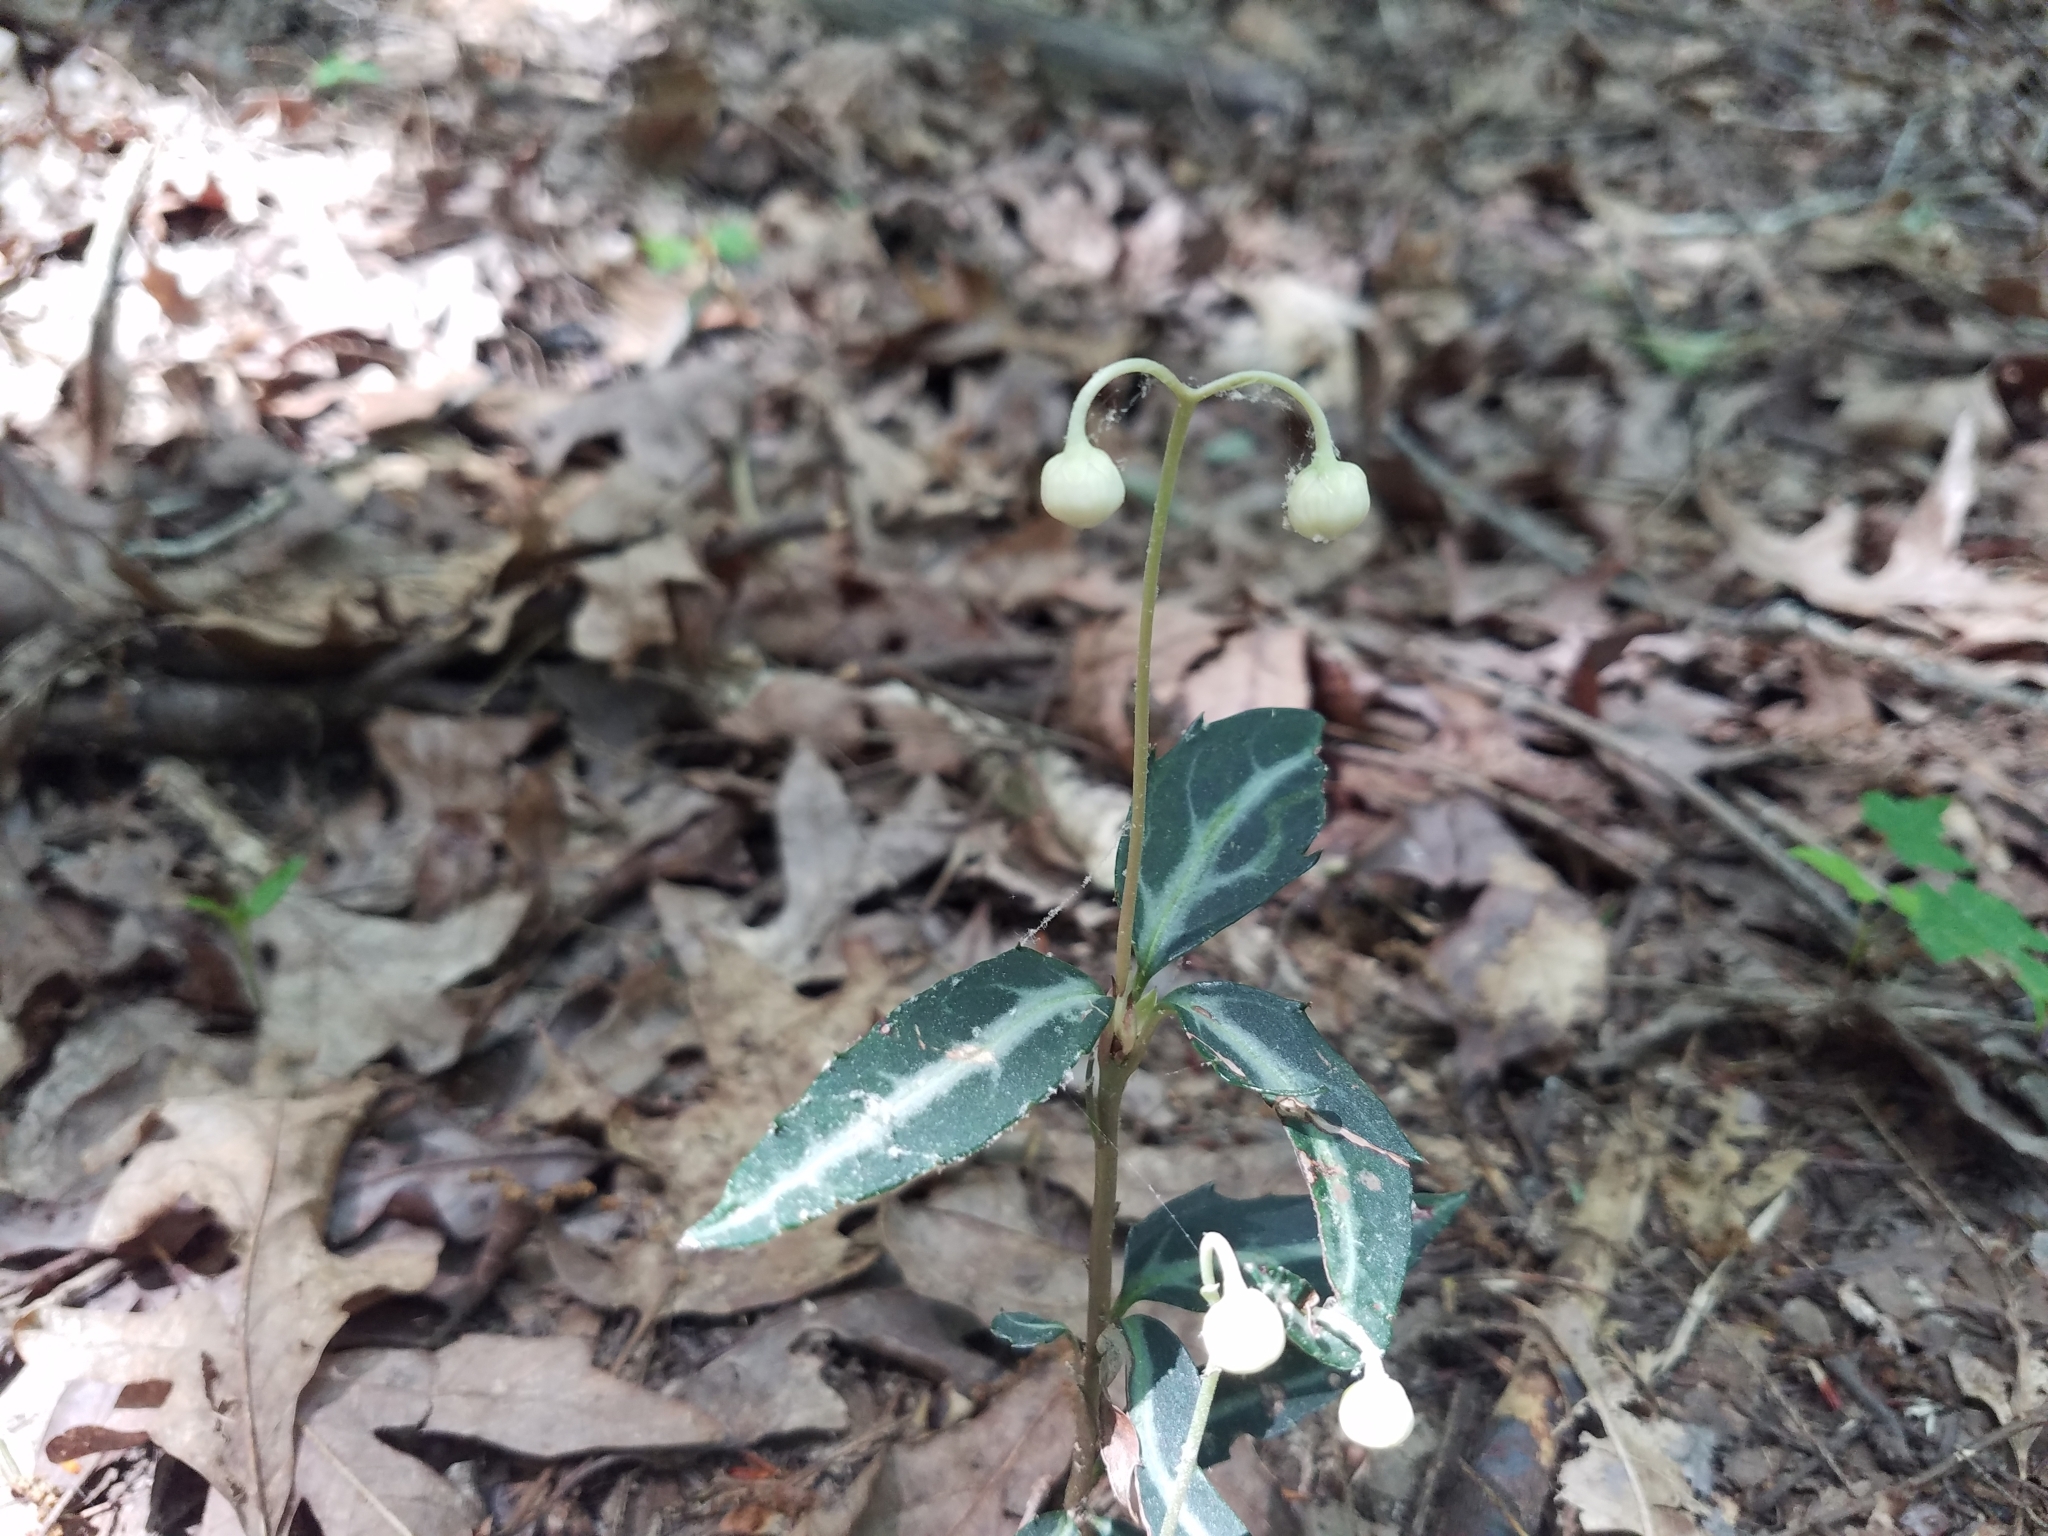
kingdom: Plantae
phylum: Tracheophyta
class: Magnoliopsida
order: Ericales
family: Ericaceae
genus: Chimaphila
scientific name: Chimaphila maculata
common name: Spotted pipsissewa
